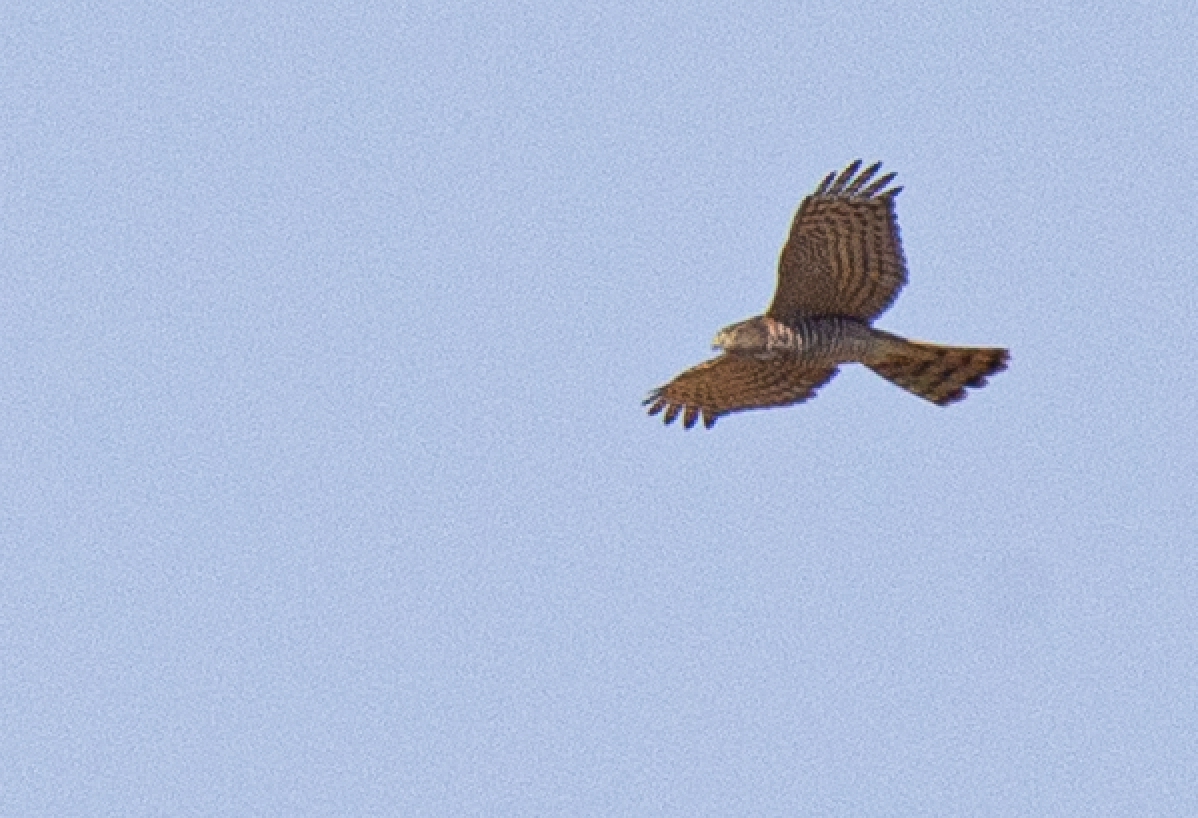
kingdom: Animalia
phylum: Chordata
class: Aves
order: Accipitriformes
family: Accipitridae
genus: Accipiter
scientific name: Accipiter nisus
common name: Eurasian sparrowhawk
